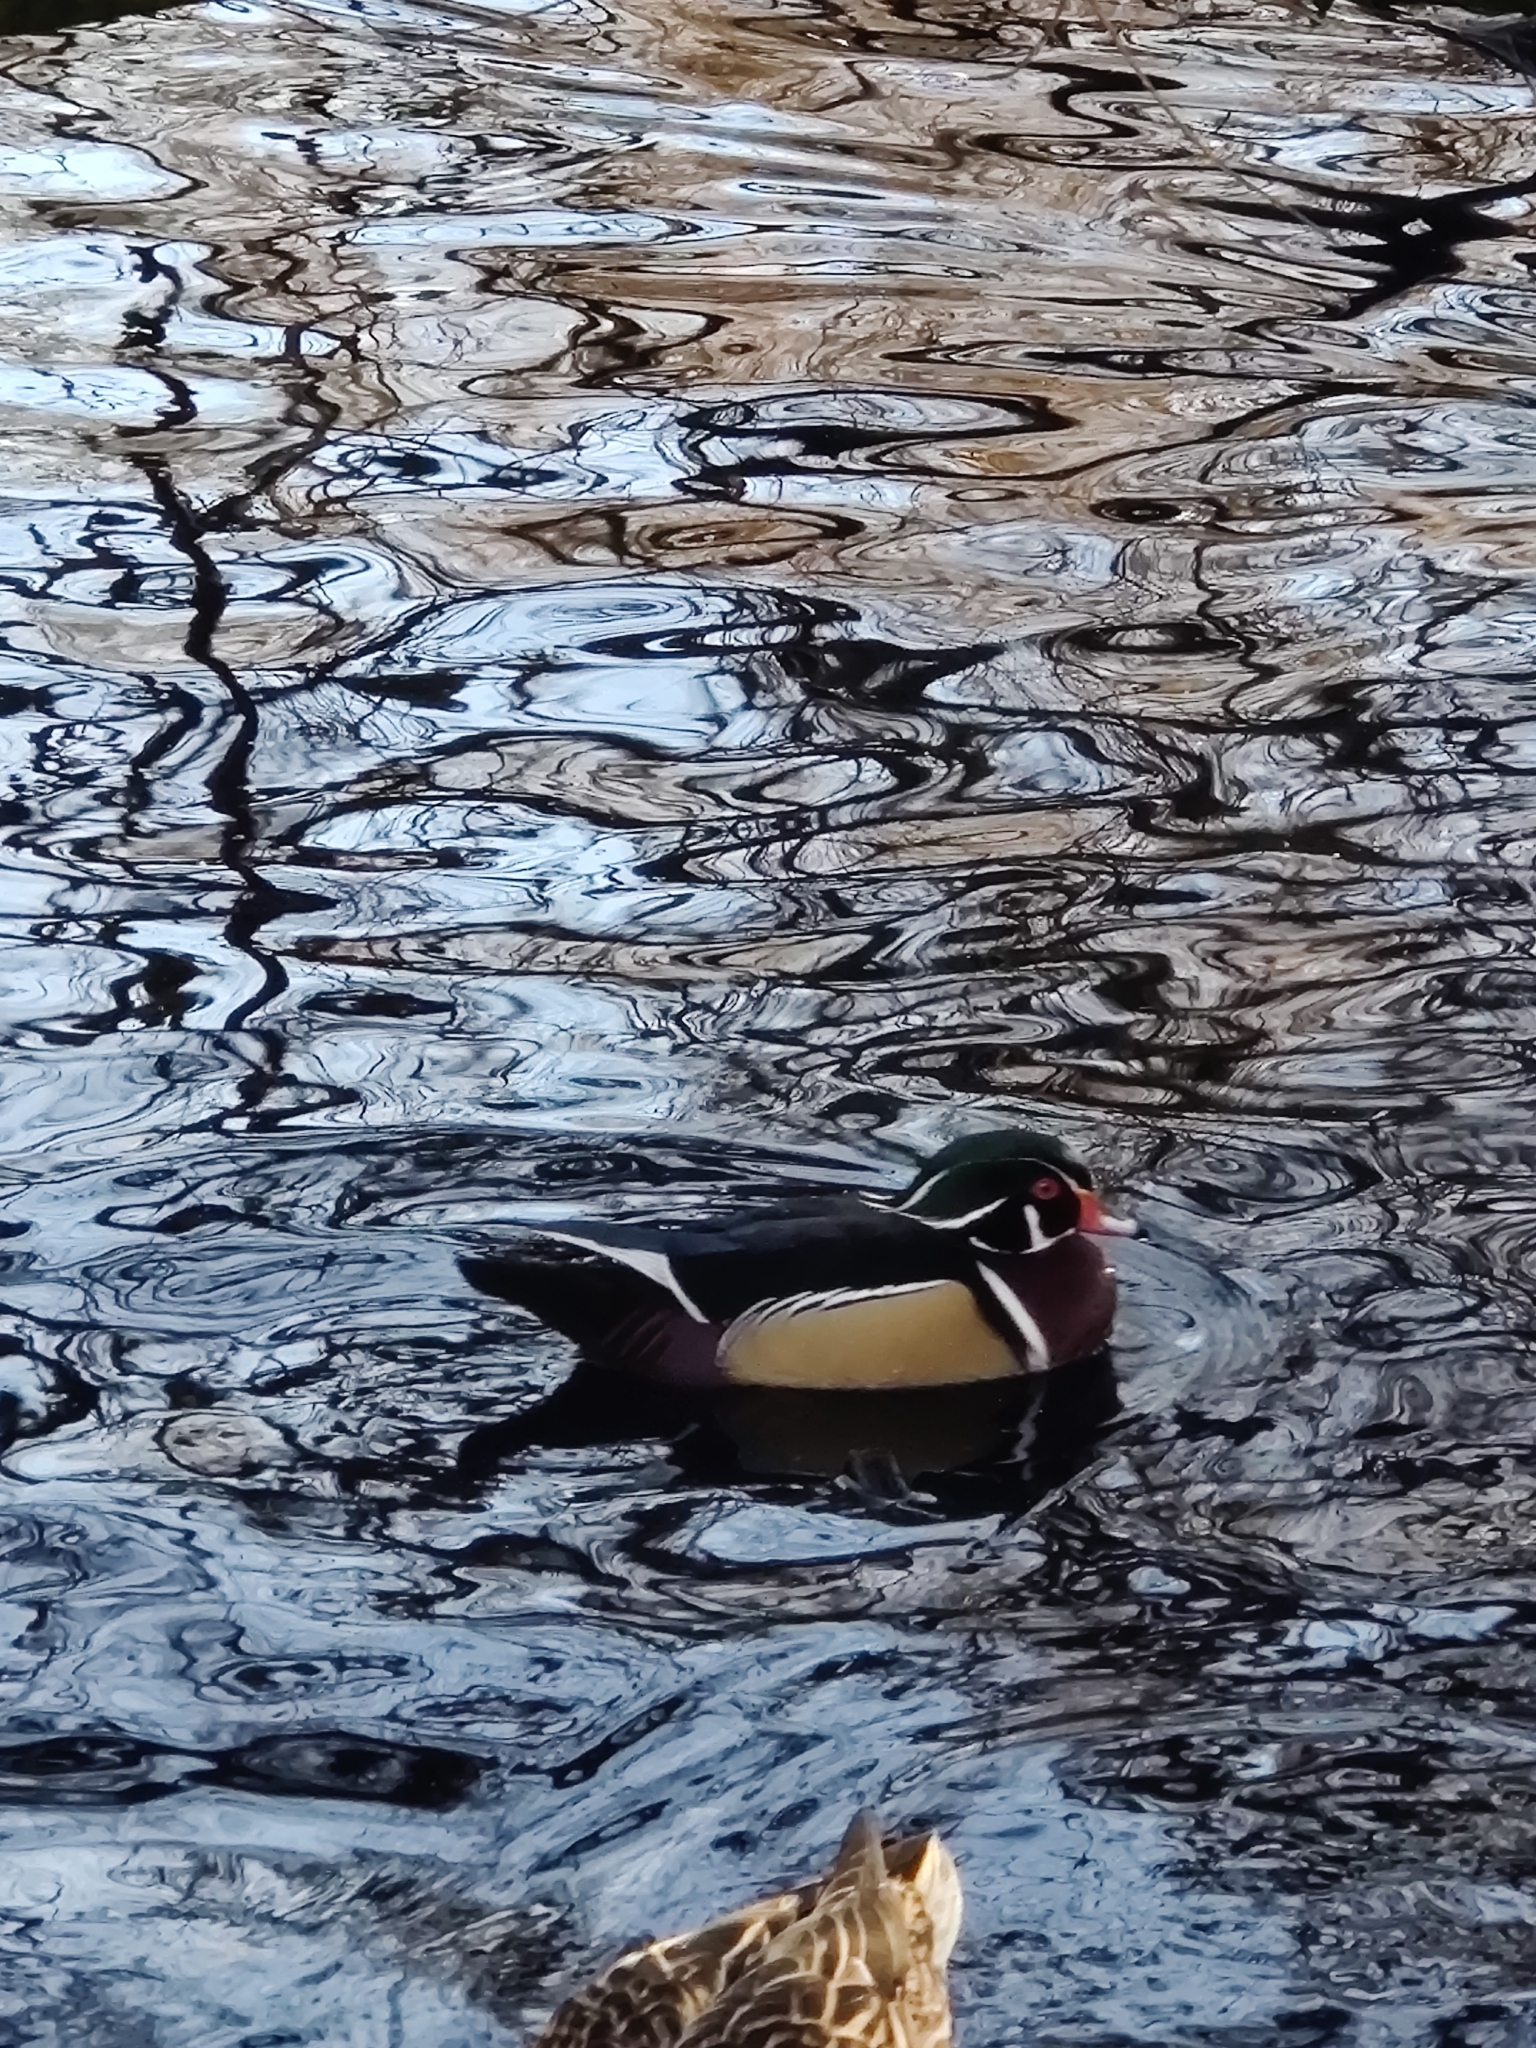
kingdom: Animalia
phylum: Chordata
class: Aves
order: Anseriformes
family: Anatidae
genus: Aix
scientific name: Aix sponsa
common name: Wood duck
